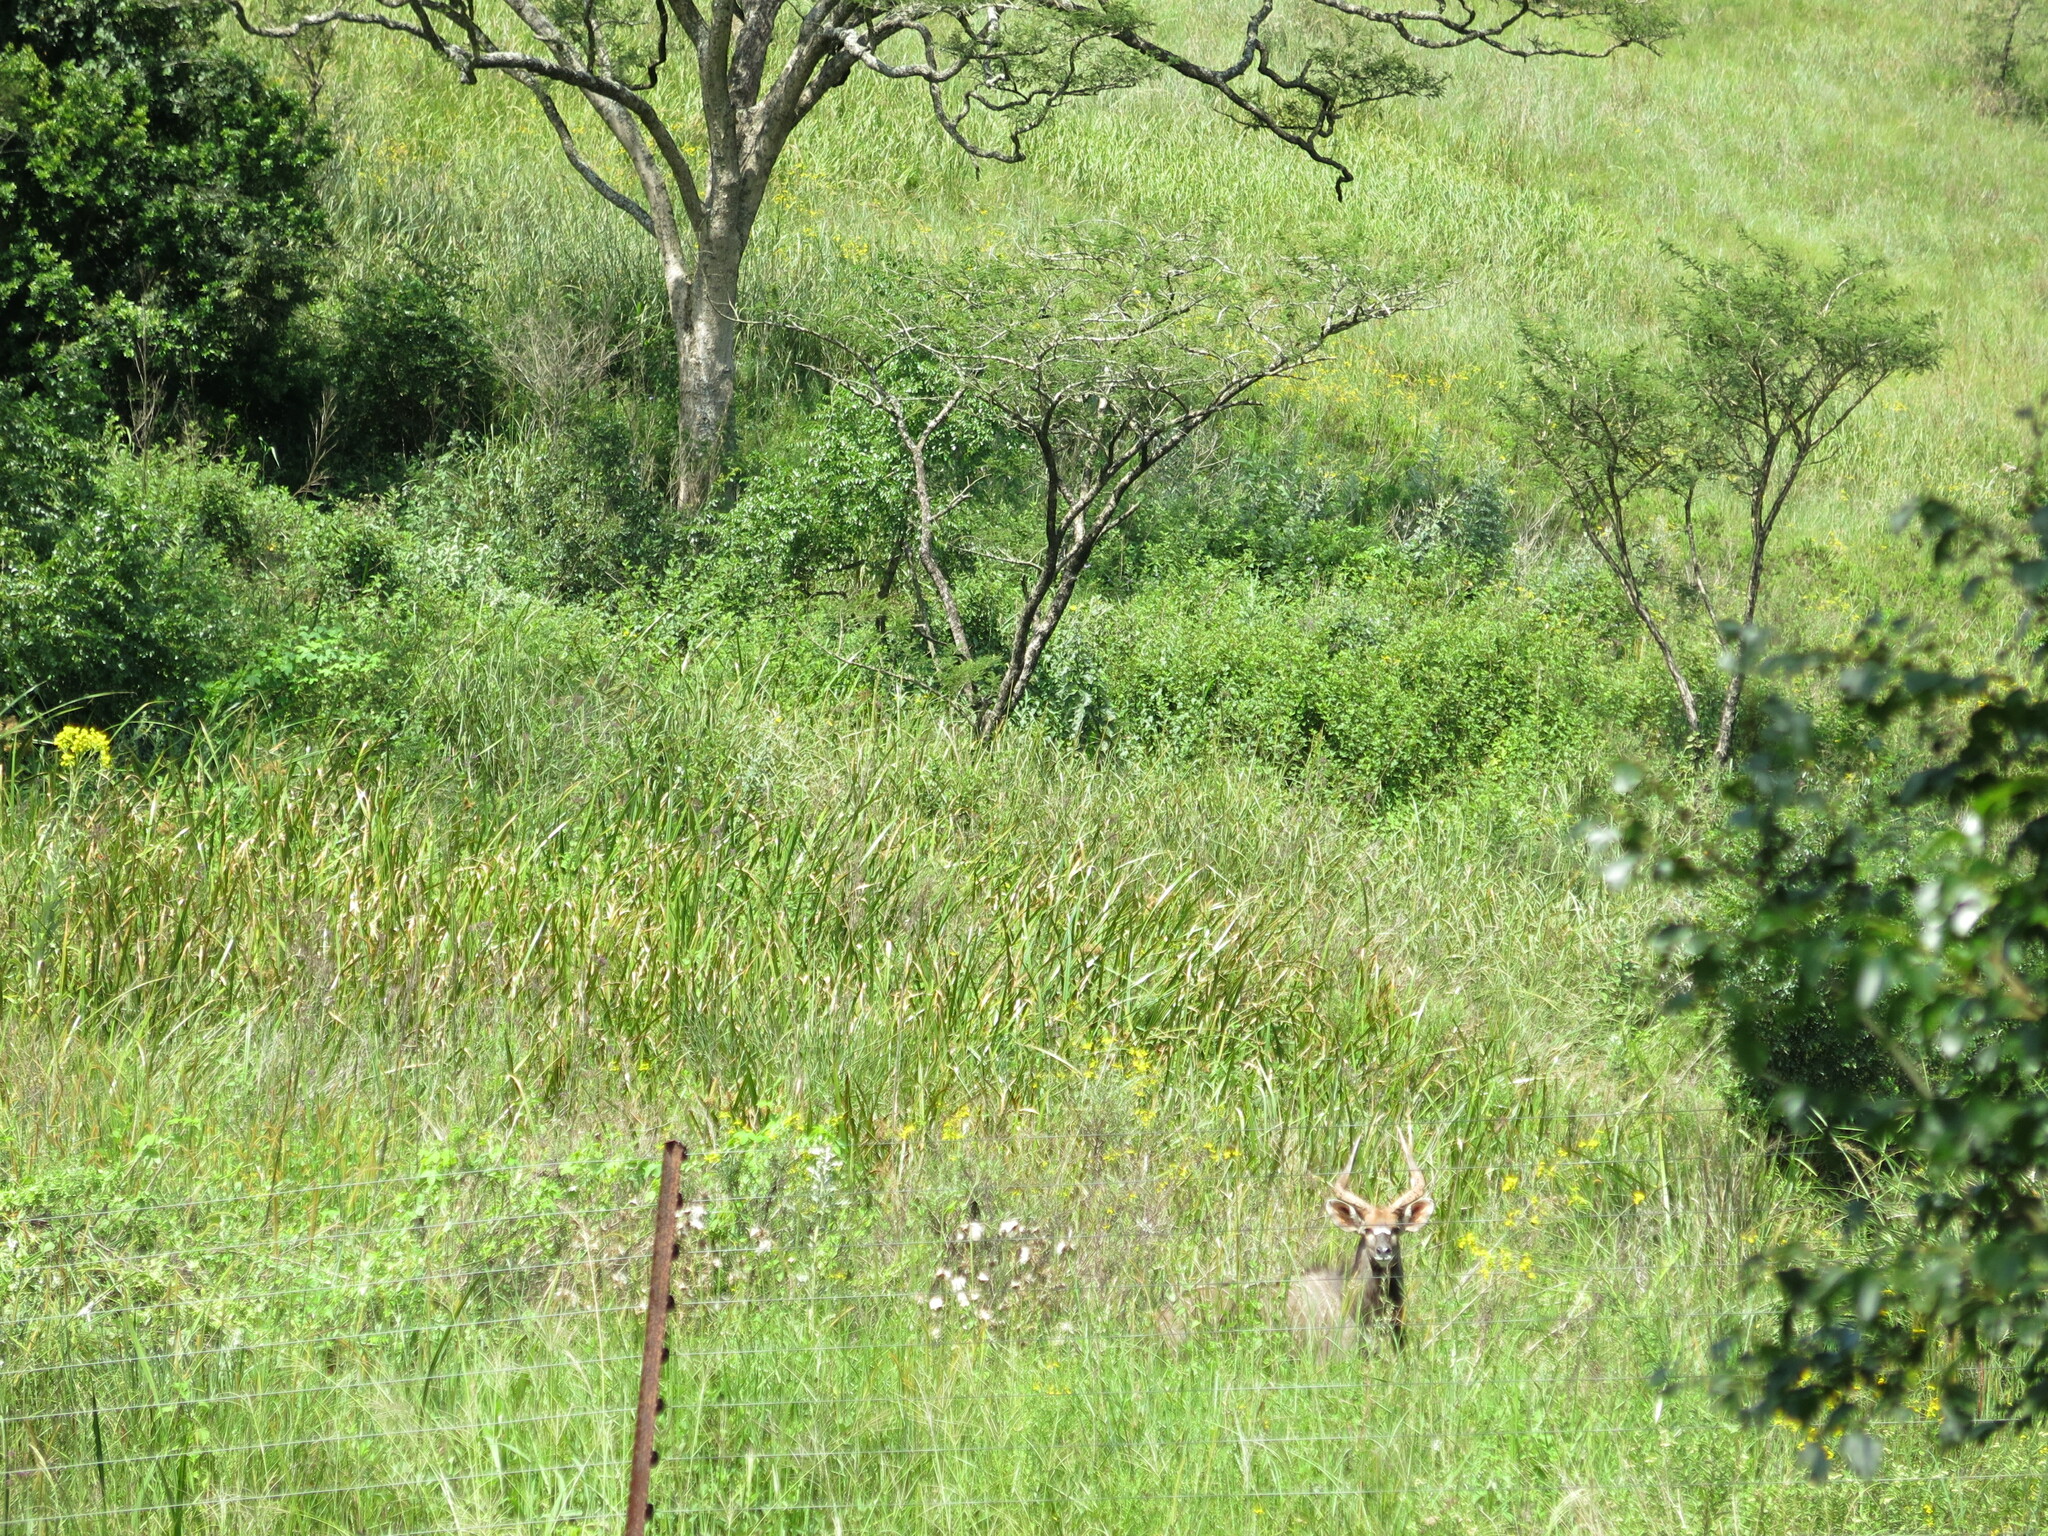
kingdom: Animalia
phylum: Chordata
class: Mammalia
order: Artiodactyla
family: Bovidae
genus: Tragelaphus
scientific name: Tragelaphus angasii
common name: Nyala
